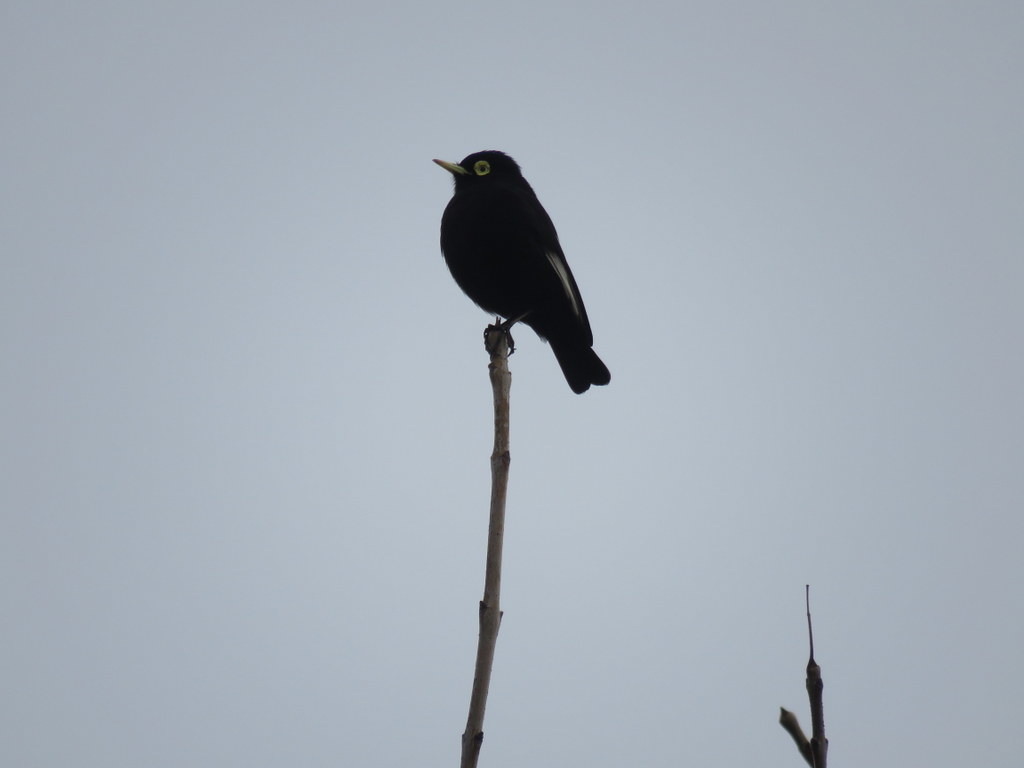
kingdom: Animalia
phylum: Chordata
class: Aves
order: Passeriformes
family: Tyrannidae
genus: Hymenops
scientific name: Hymenops perspicillatus
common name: Spectacled tyrant
